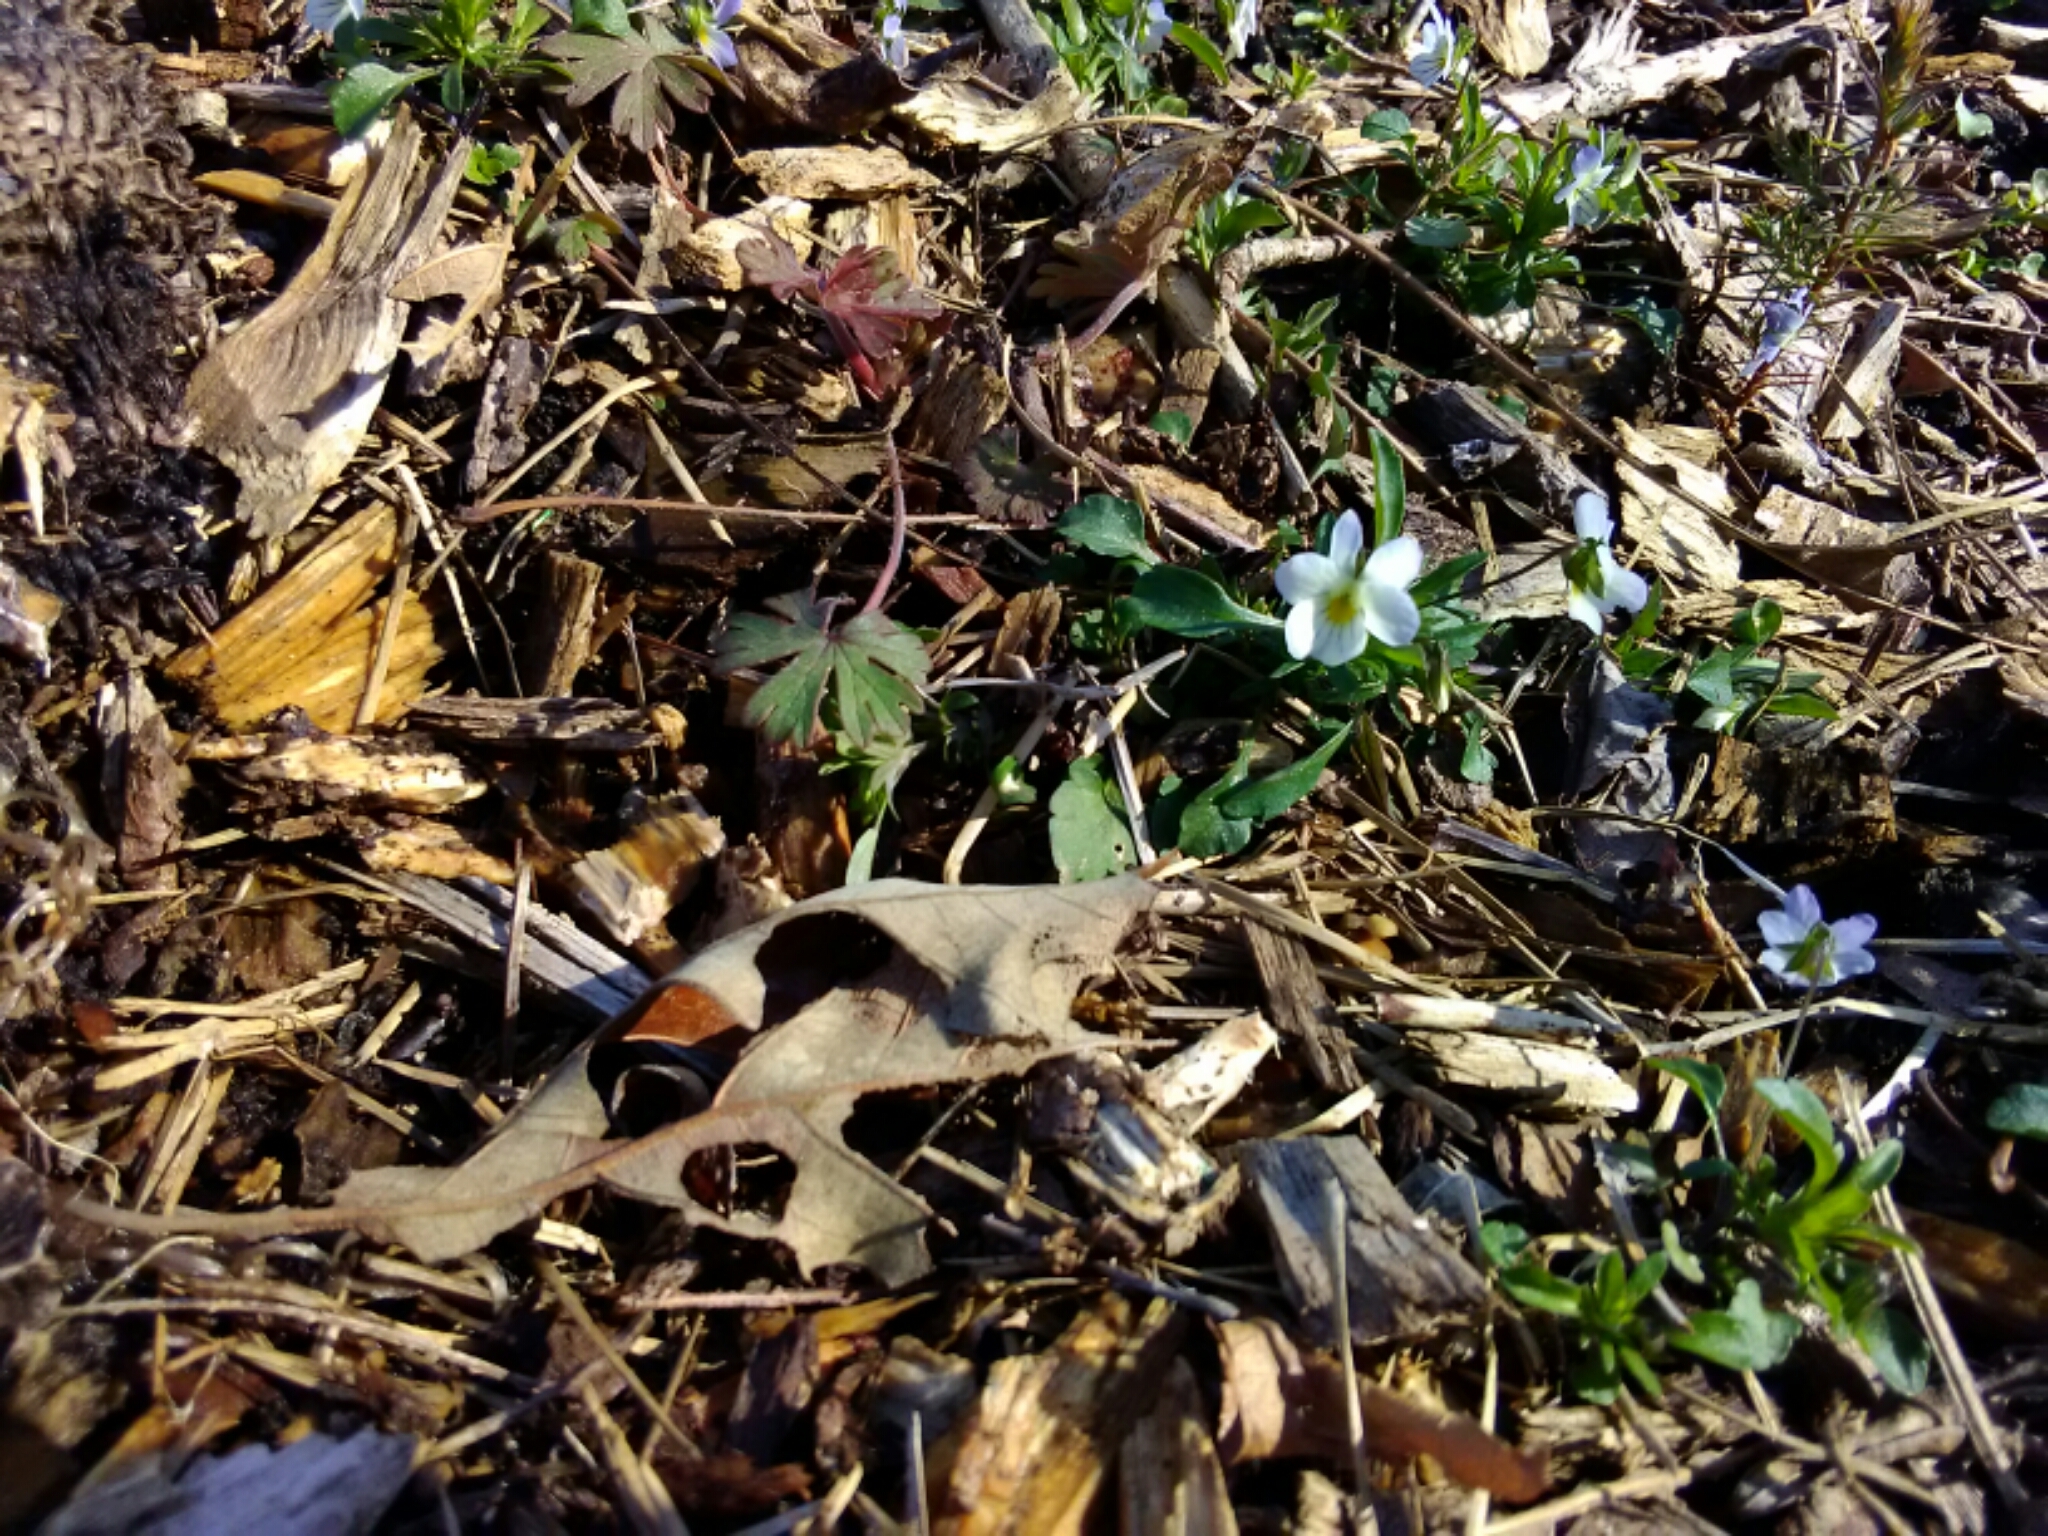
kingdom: Plantae
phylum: Tracheophyta
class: Magnoliopsida
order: Malpighiales
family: Violaceae
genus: Viola
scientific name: Viola rafinesquei
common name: American field pansy
